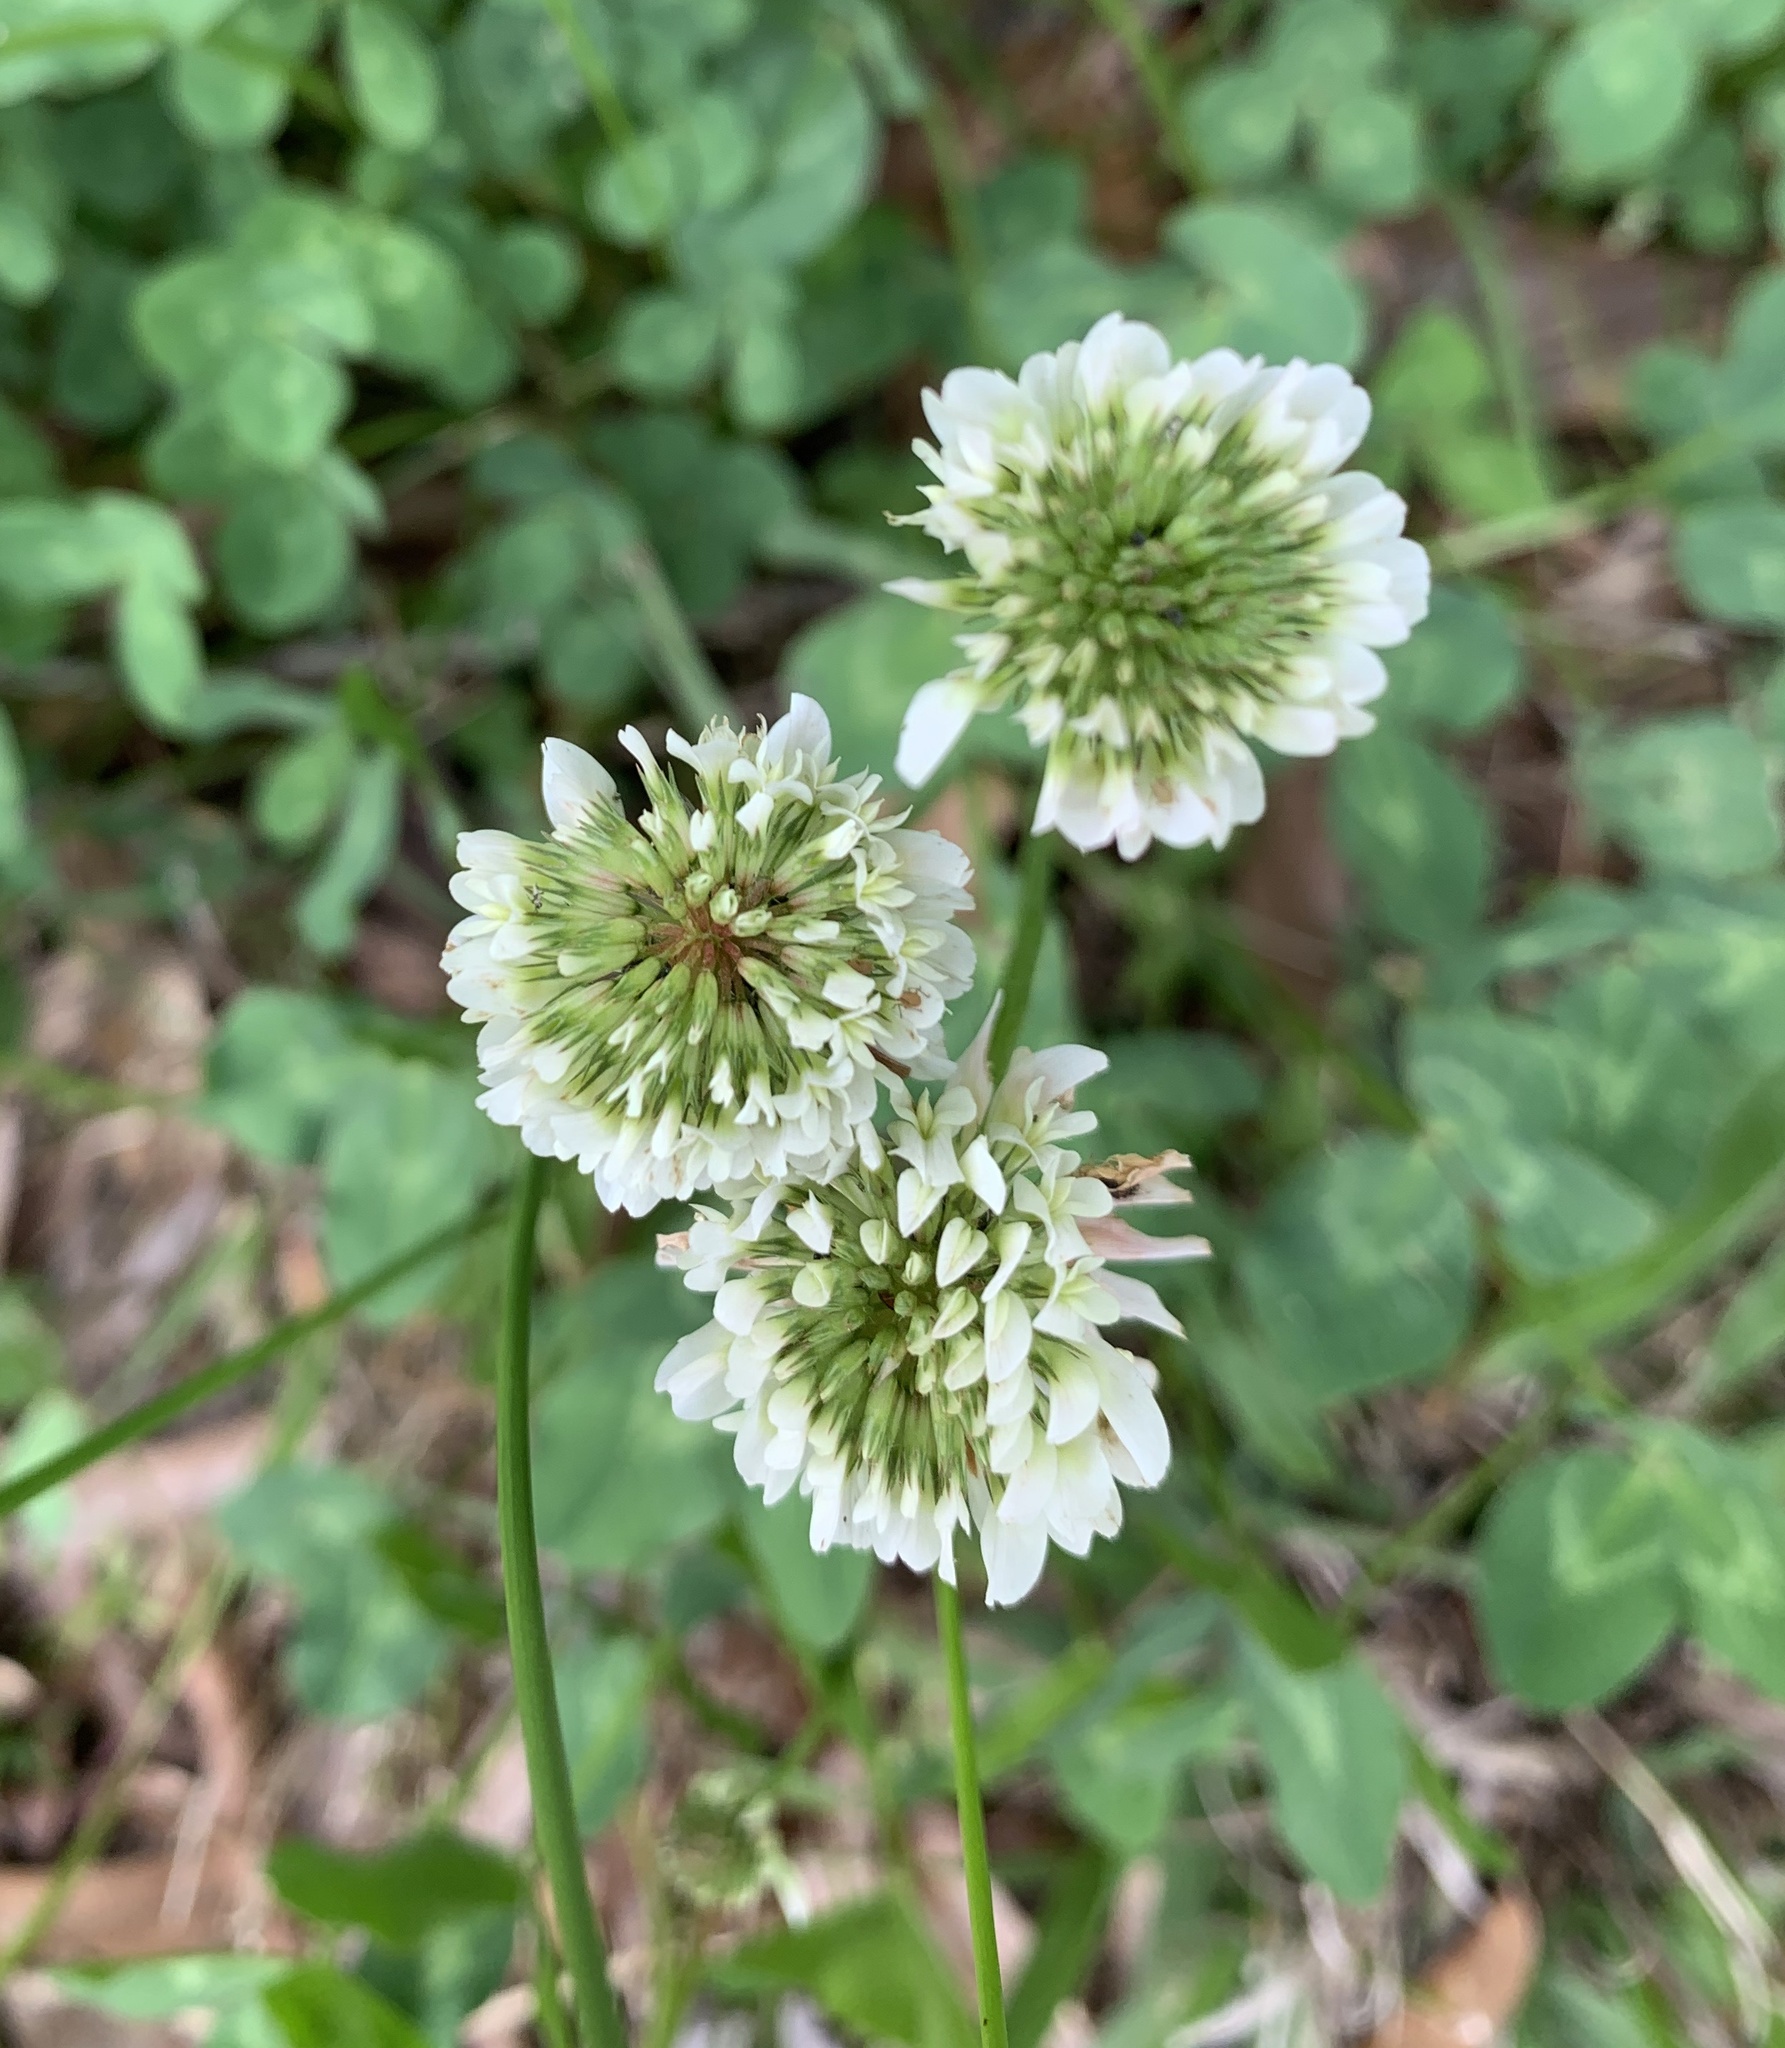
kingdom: Plantae
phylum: Tracheophyta
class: Magnoliopsida
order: Fabales
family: Fabaceae
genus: Trifolium
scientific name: Trifolium repens
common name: White clover
